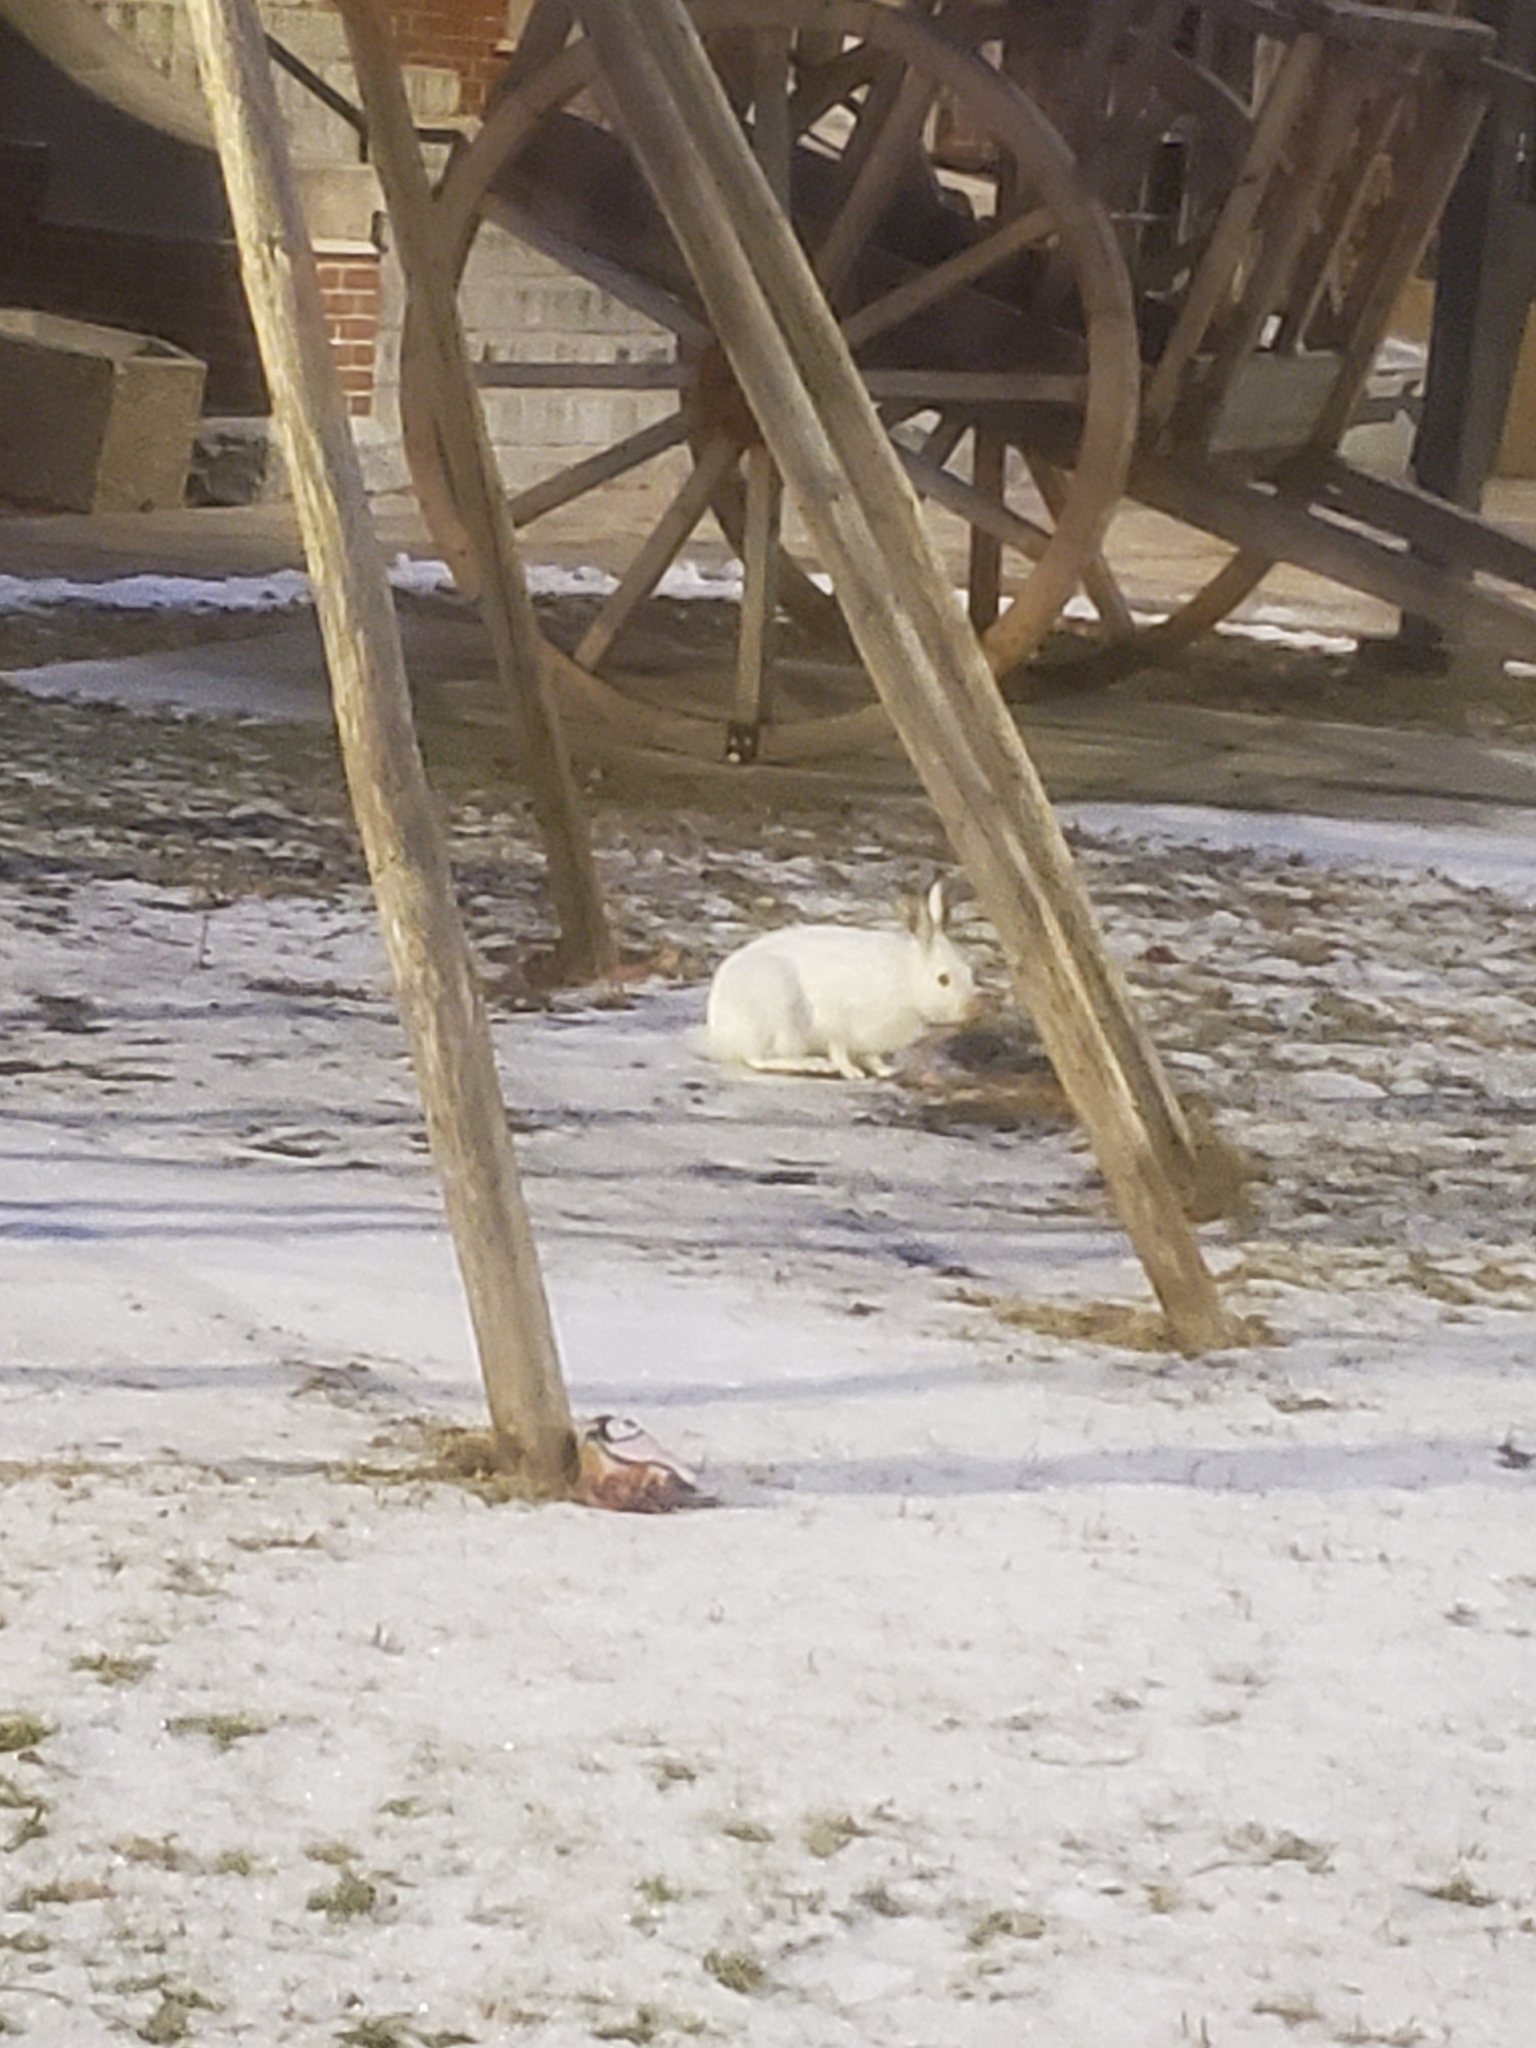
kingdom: Animalia
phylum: Chordata
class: Mammalia
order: Lagomorpha
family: Leporidae
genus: Lepus
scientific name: Lepus townsendii
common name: White-tailed jackrabbit
